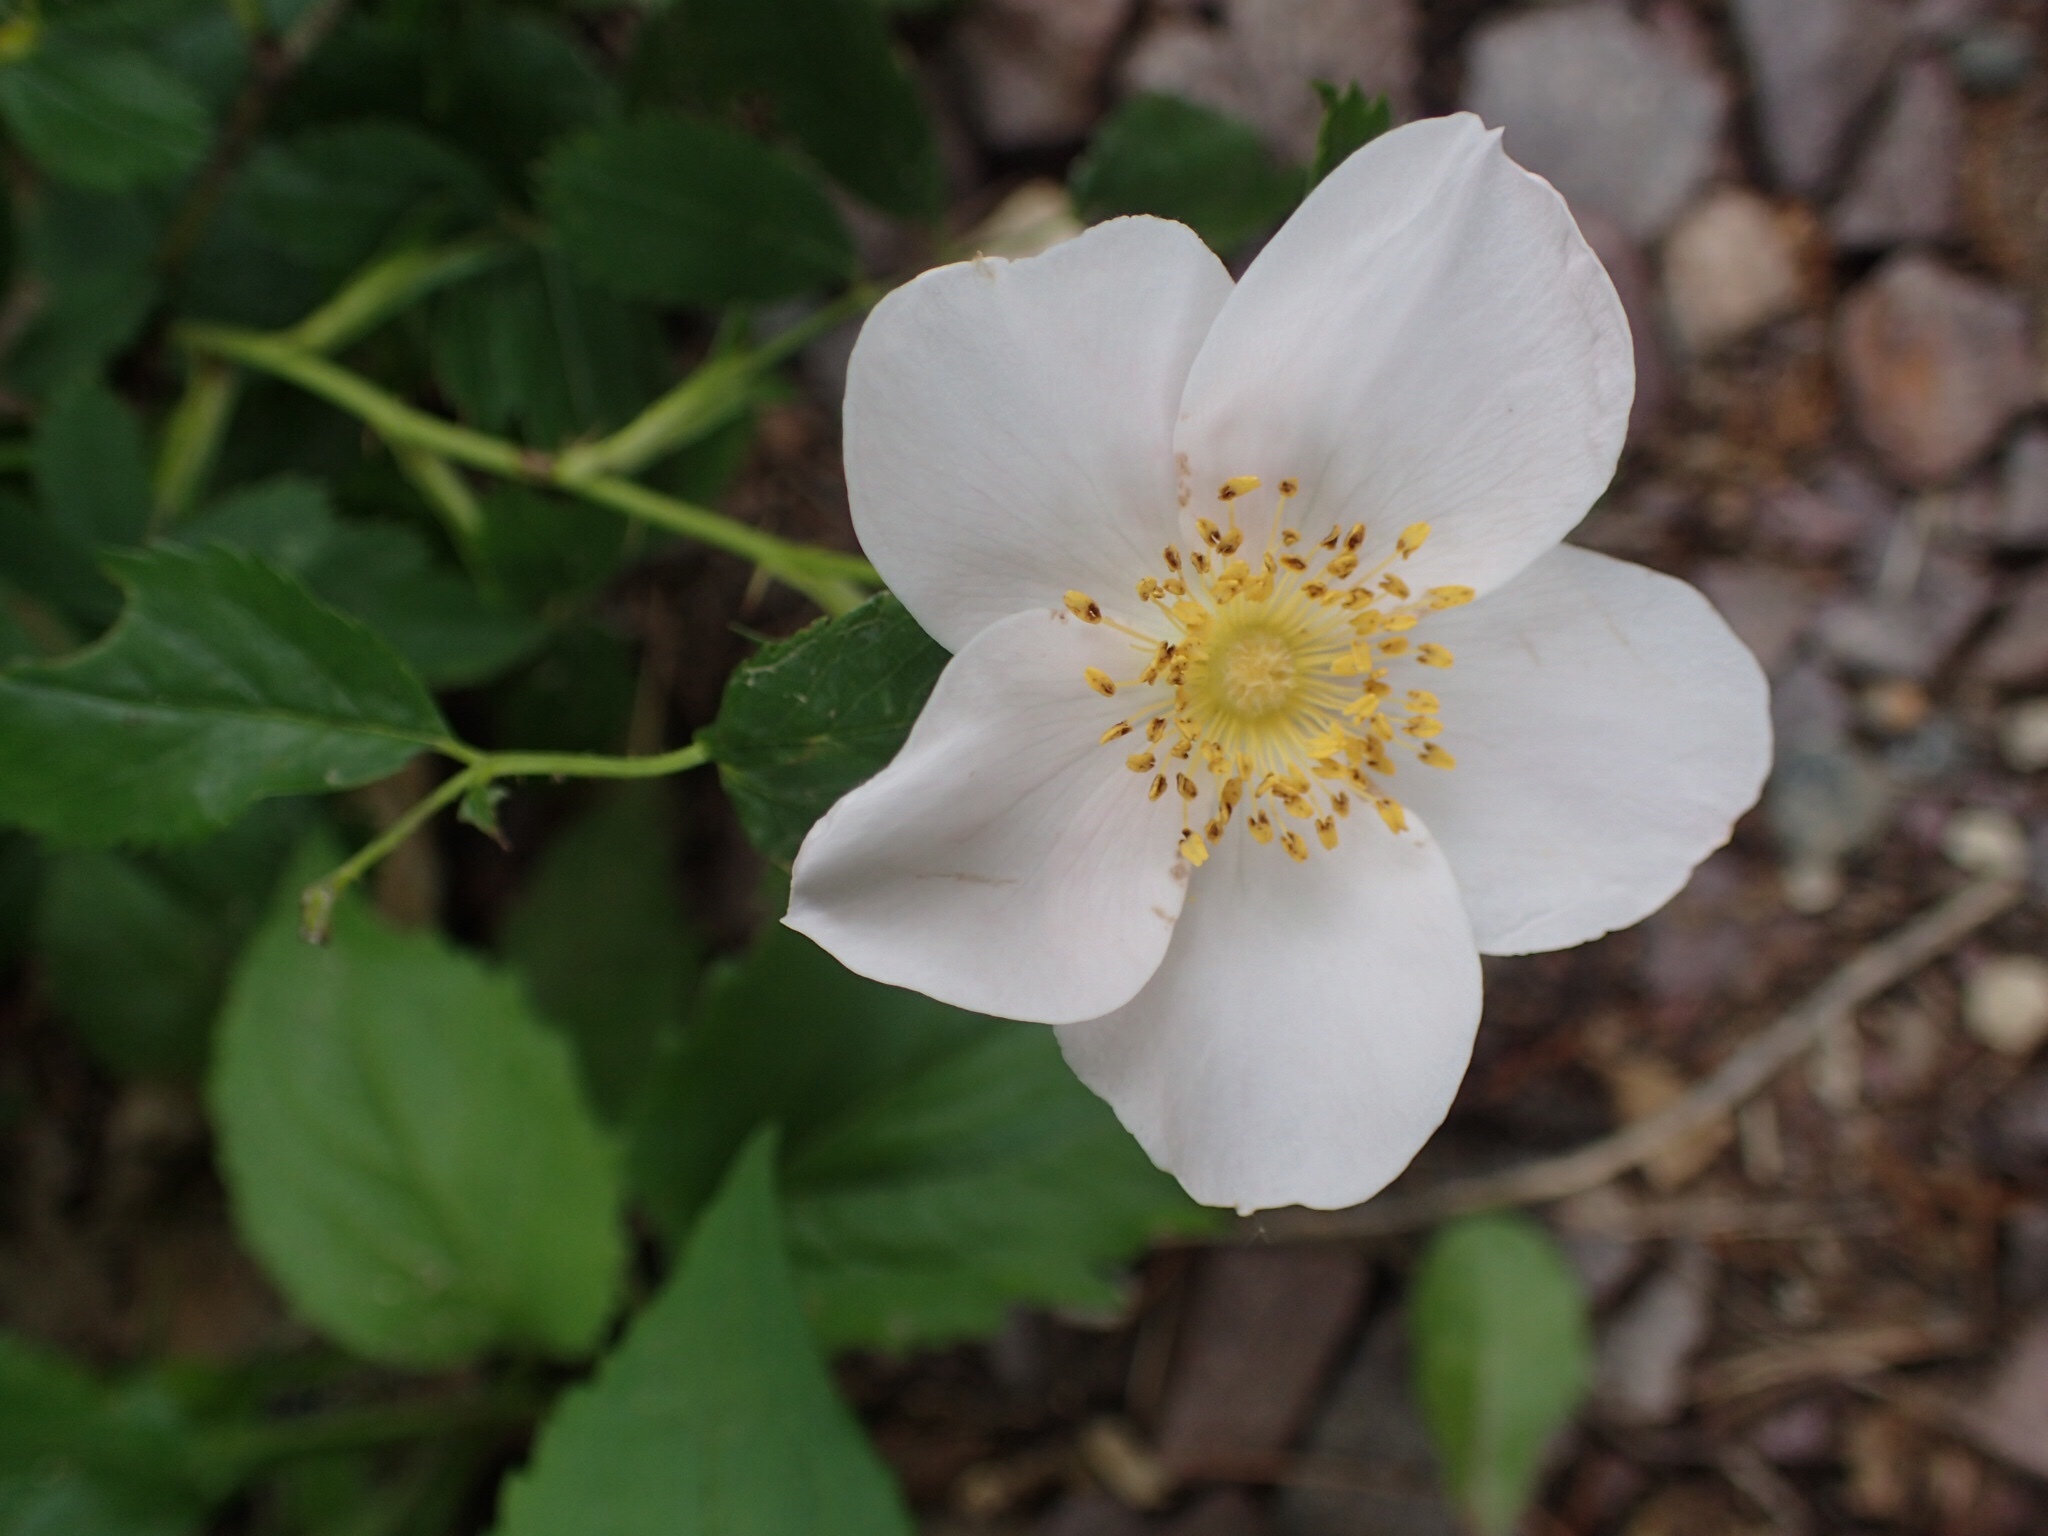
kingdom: Plantae
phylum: Tracheophyta
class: Magnoliopsida
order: Rosales
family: Rosaceae
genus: Rosa
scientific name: Rosa multiflora
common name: Multiflora rose
